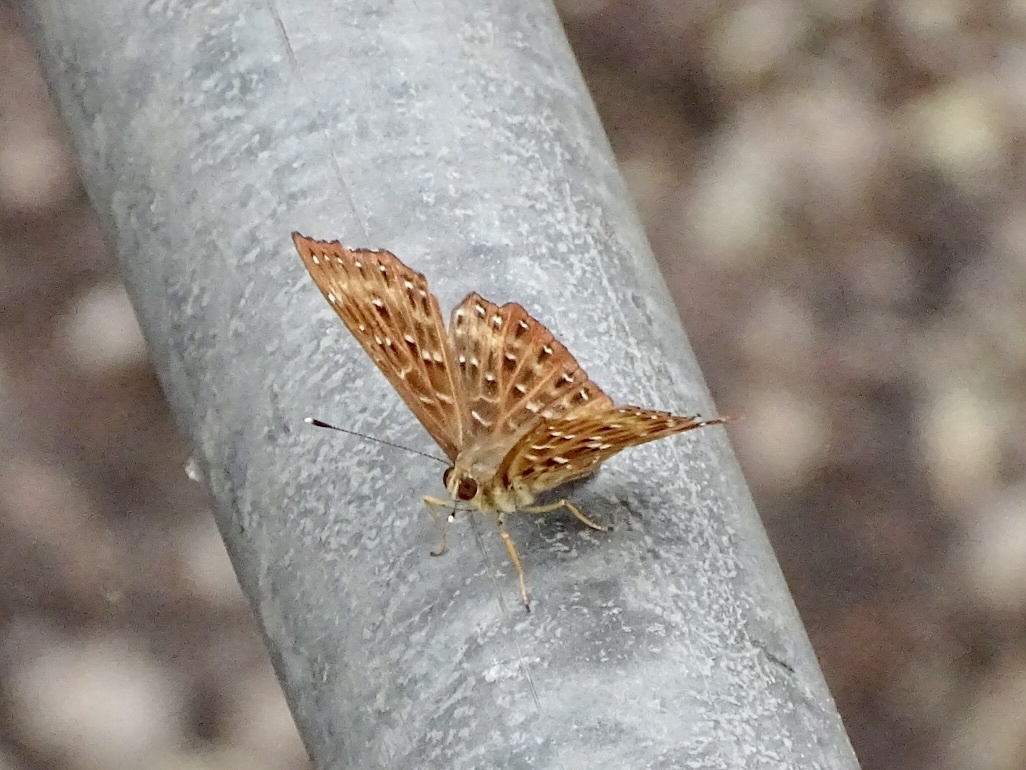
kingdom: Animalia
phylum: Arthropoda
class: Insecta
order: Lepidoptera
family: Riodinidae
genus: Zemeros
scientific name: Zemeros flegyas
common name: Punchinello
